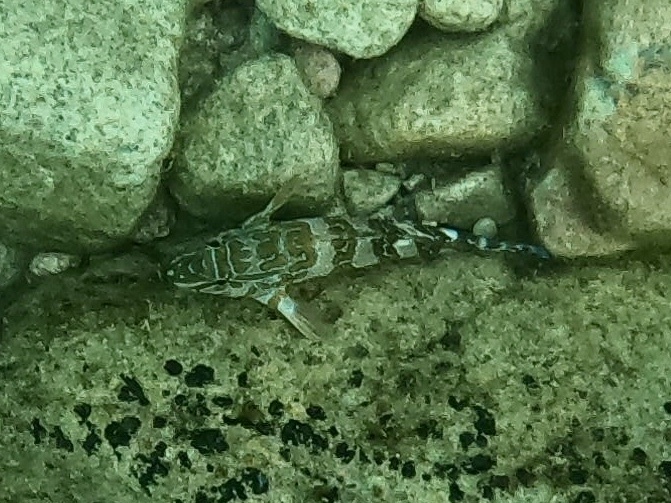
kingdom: Animalia
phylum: Chordata
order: Perciformes
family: Cirrhitidae
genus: Cirrhitus
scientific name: Cirrhitus rivulatus
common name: Giant hawkfish
